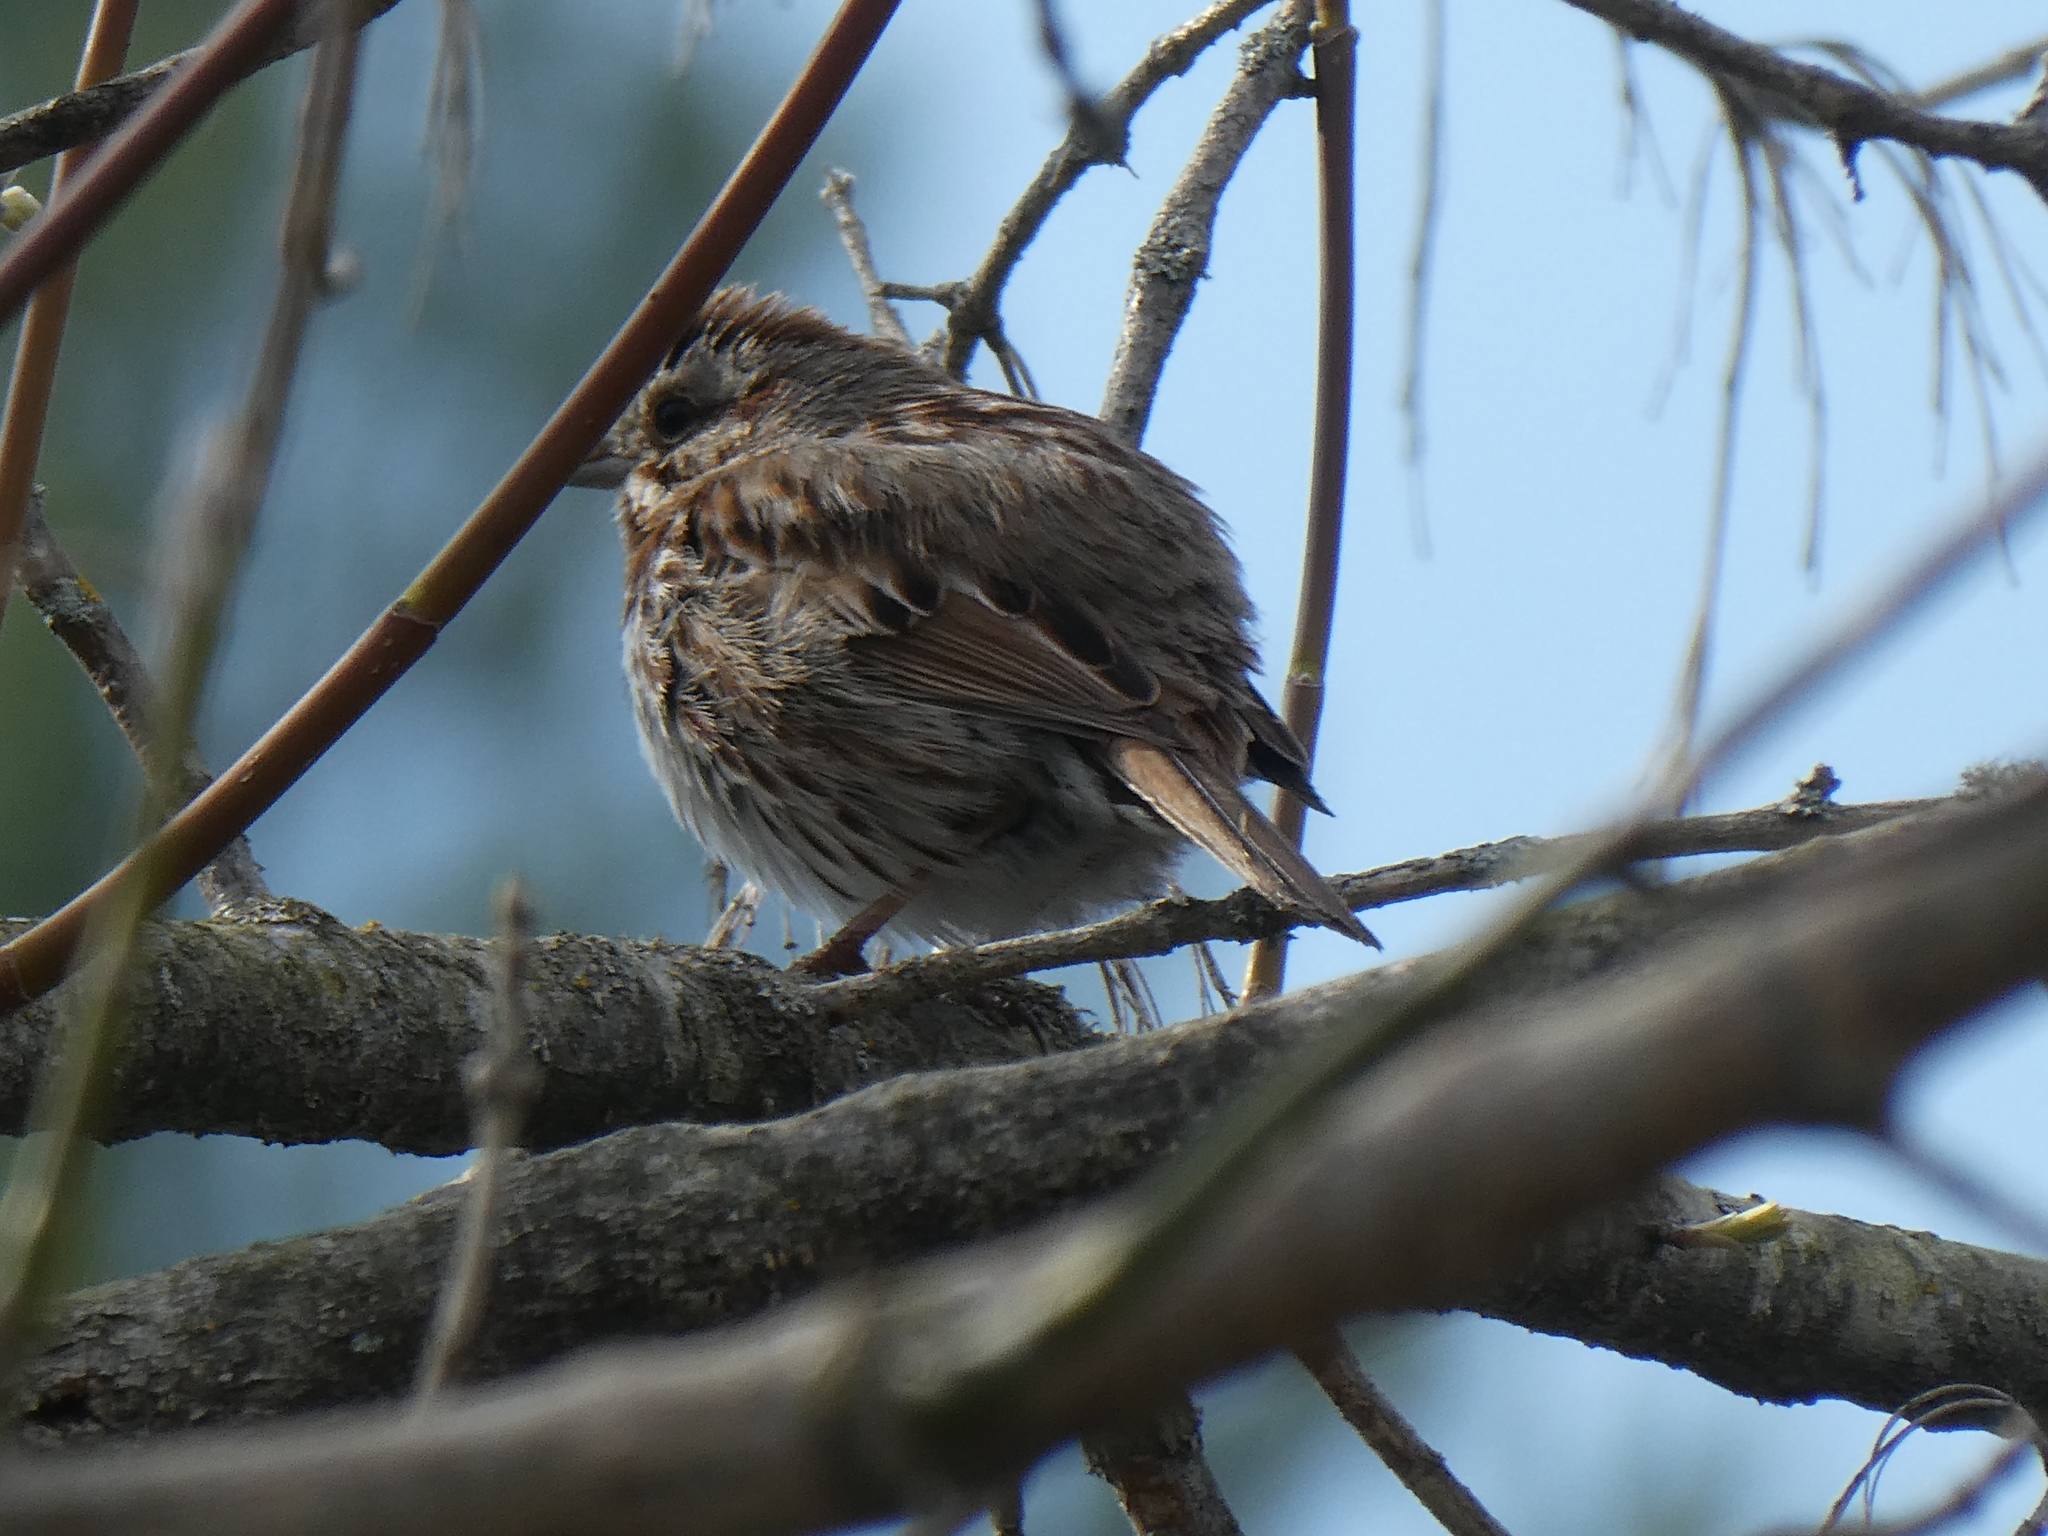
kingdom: Animalia
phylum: Chordata
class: Aves
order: Passeriformes
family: Passerellidae
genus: Melospiza
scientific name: Melospiza melodia
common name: Song sparrow
